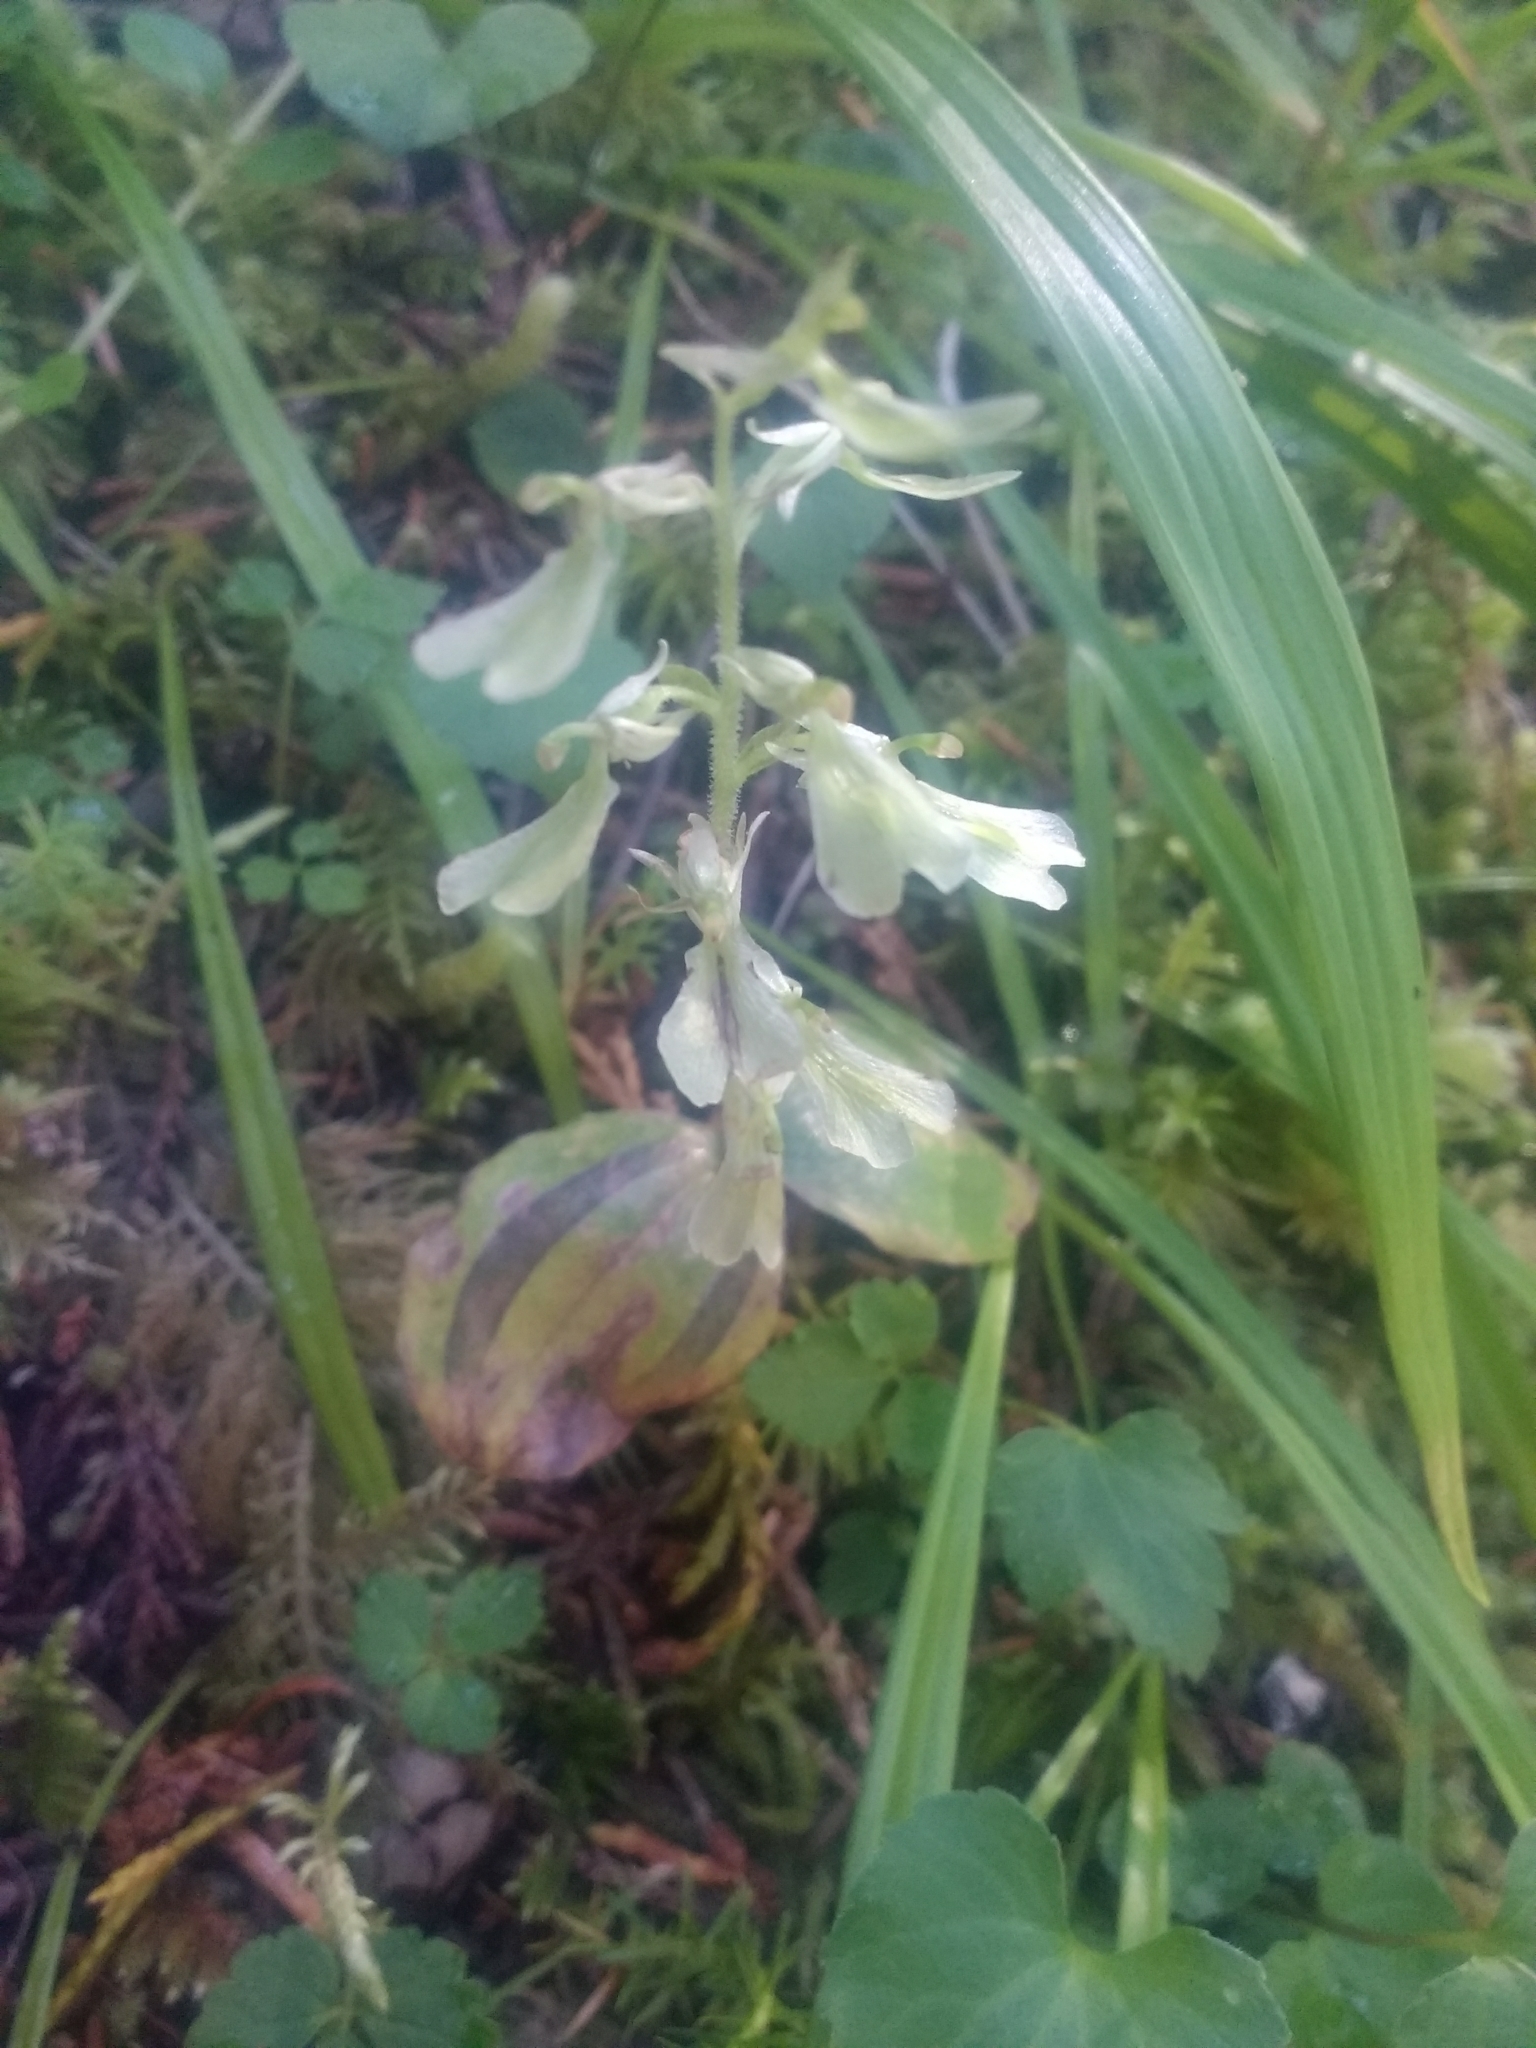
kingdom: Plantae
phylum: Tracheophyta
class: Liliopsida
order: Asparagales
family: Orchidaceae
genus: Neottia
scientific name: Neottia convallarioides
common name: Broadleaf twayblade
